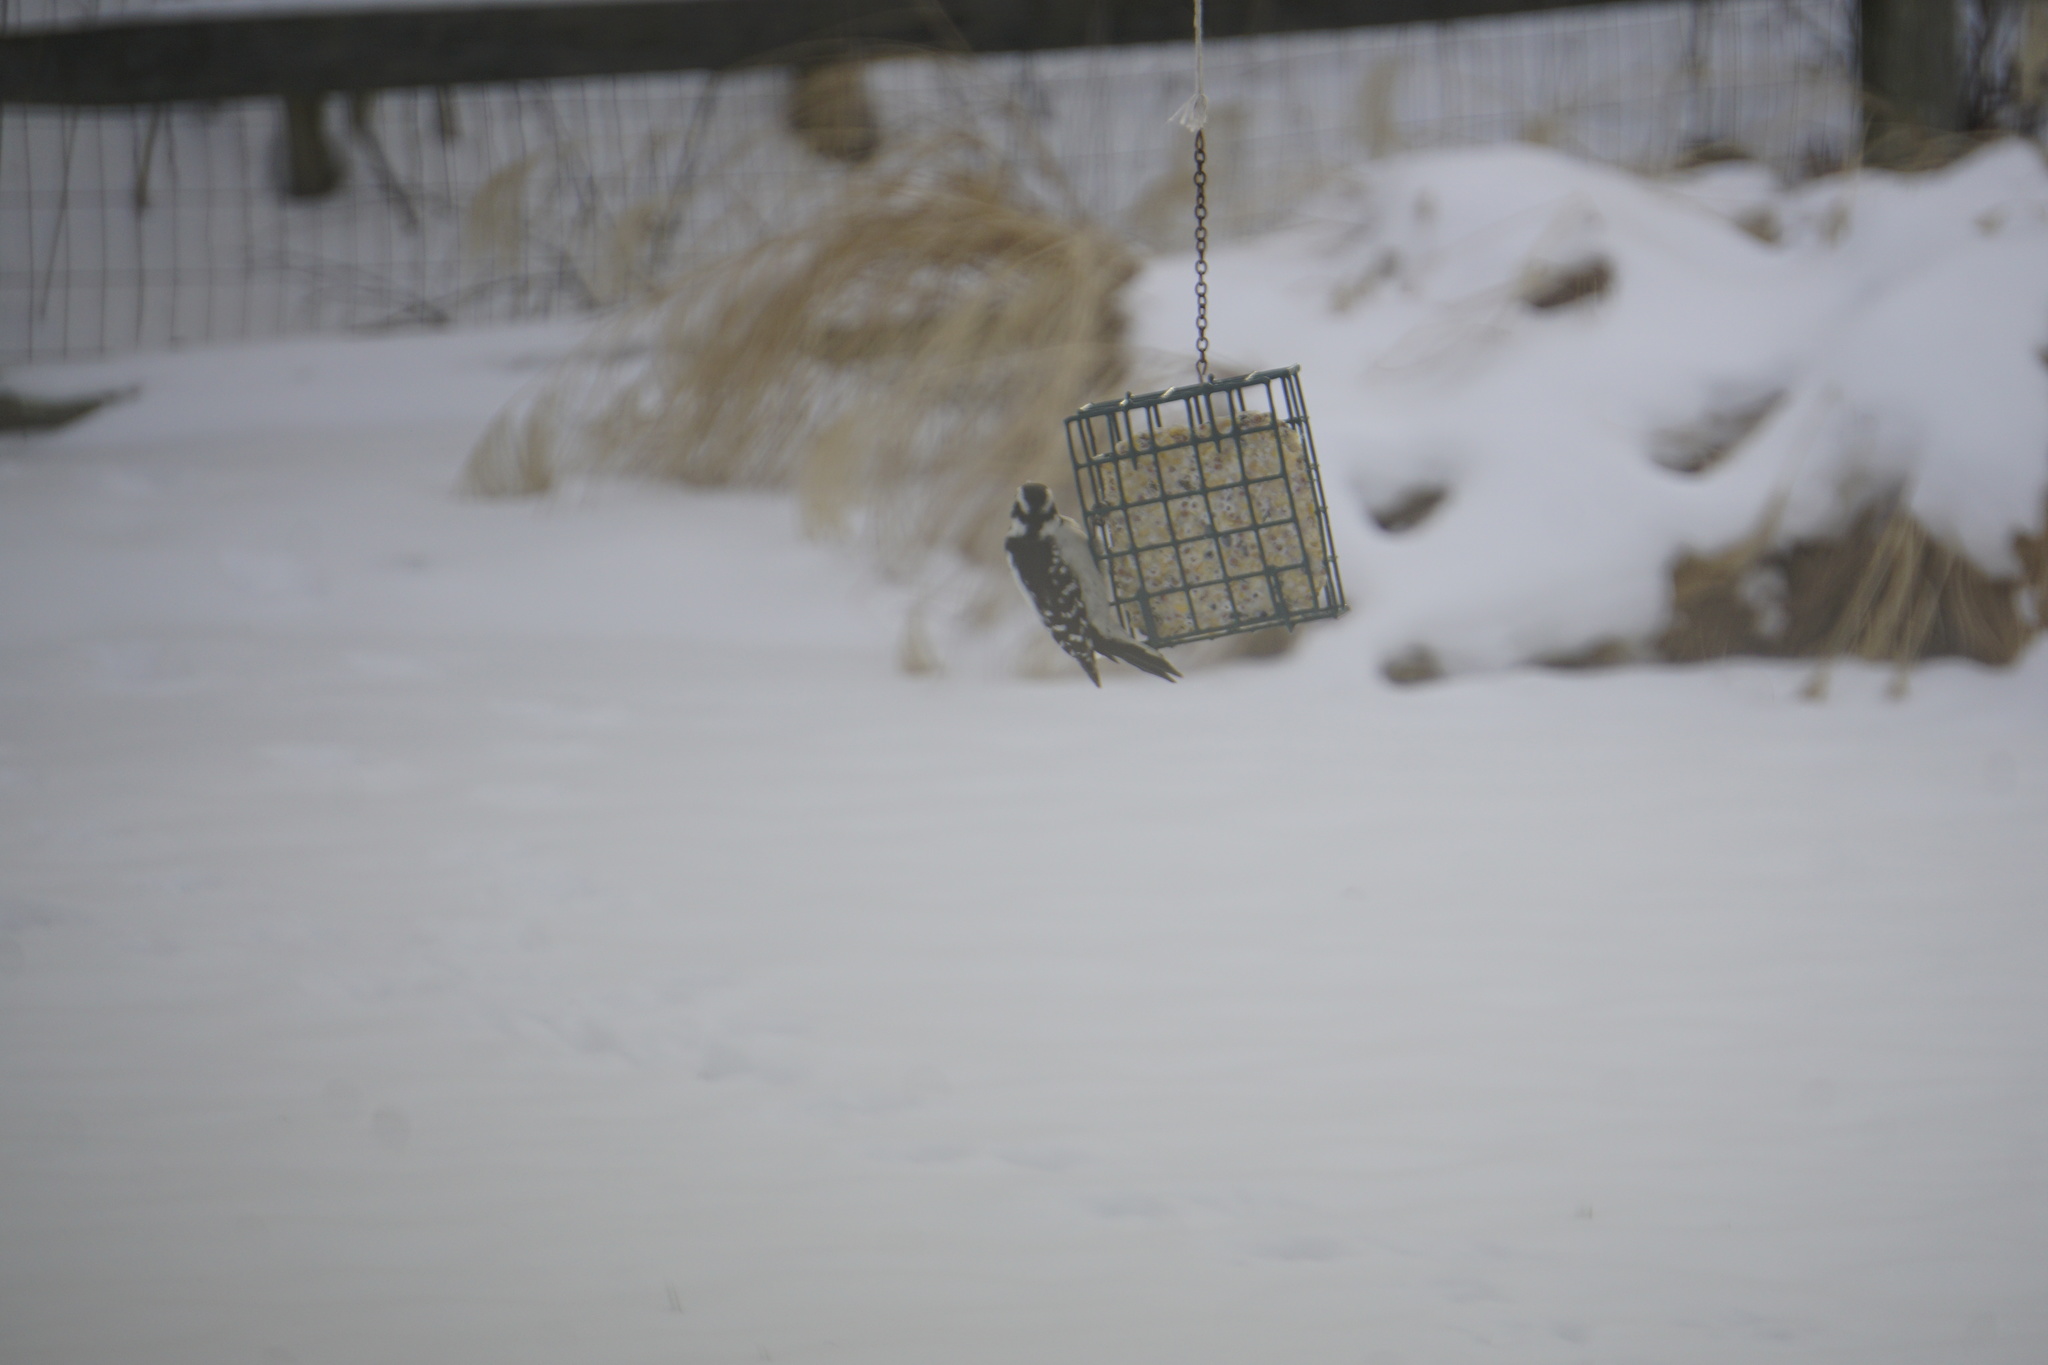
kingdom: Animalia
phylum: Chordata
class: Aves
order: Piciformes
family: Picidae
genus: Dryobates
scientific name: Dryobates pubescens
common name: Downy woodpecker
